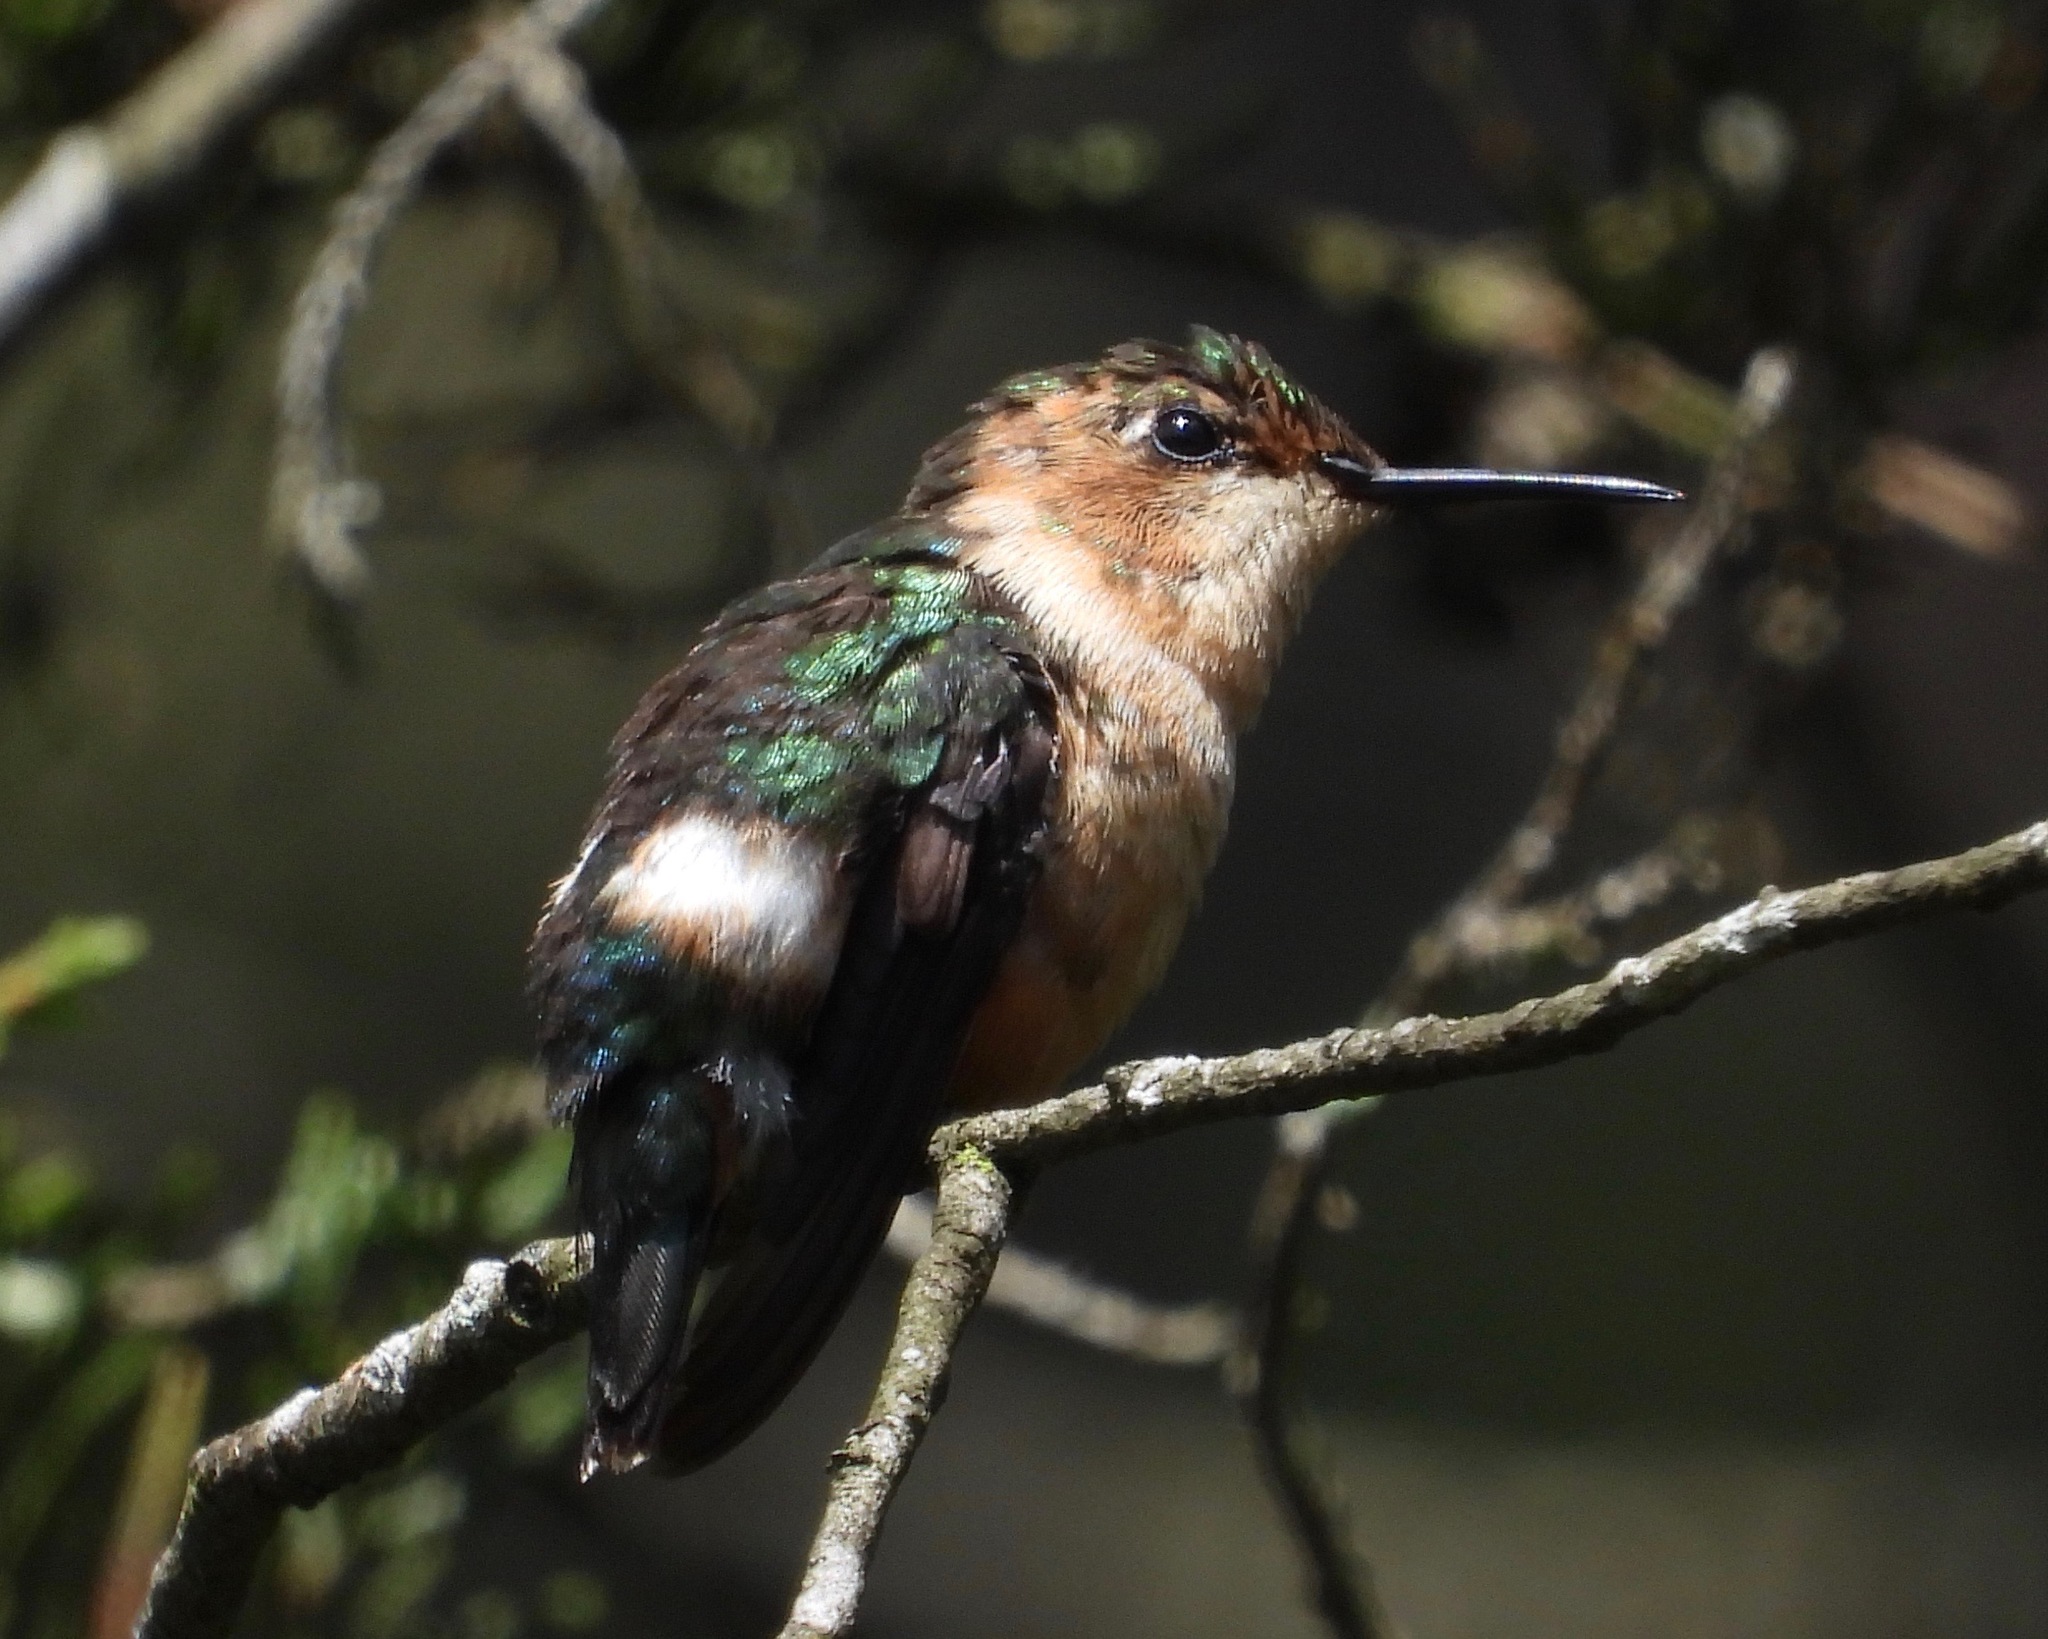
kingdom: Animalia
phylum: Chordata
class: Aves
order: Apodiformes
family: Trochilidae
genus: Tilmatura
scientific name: Tilmatura dupontii
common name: Sparkling-tailed woodstar
